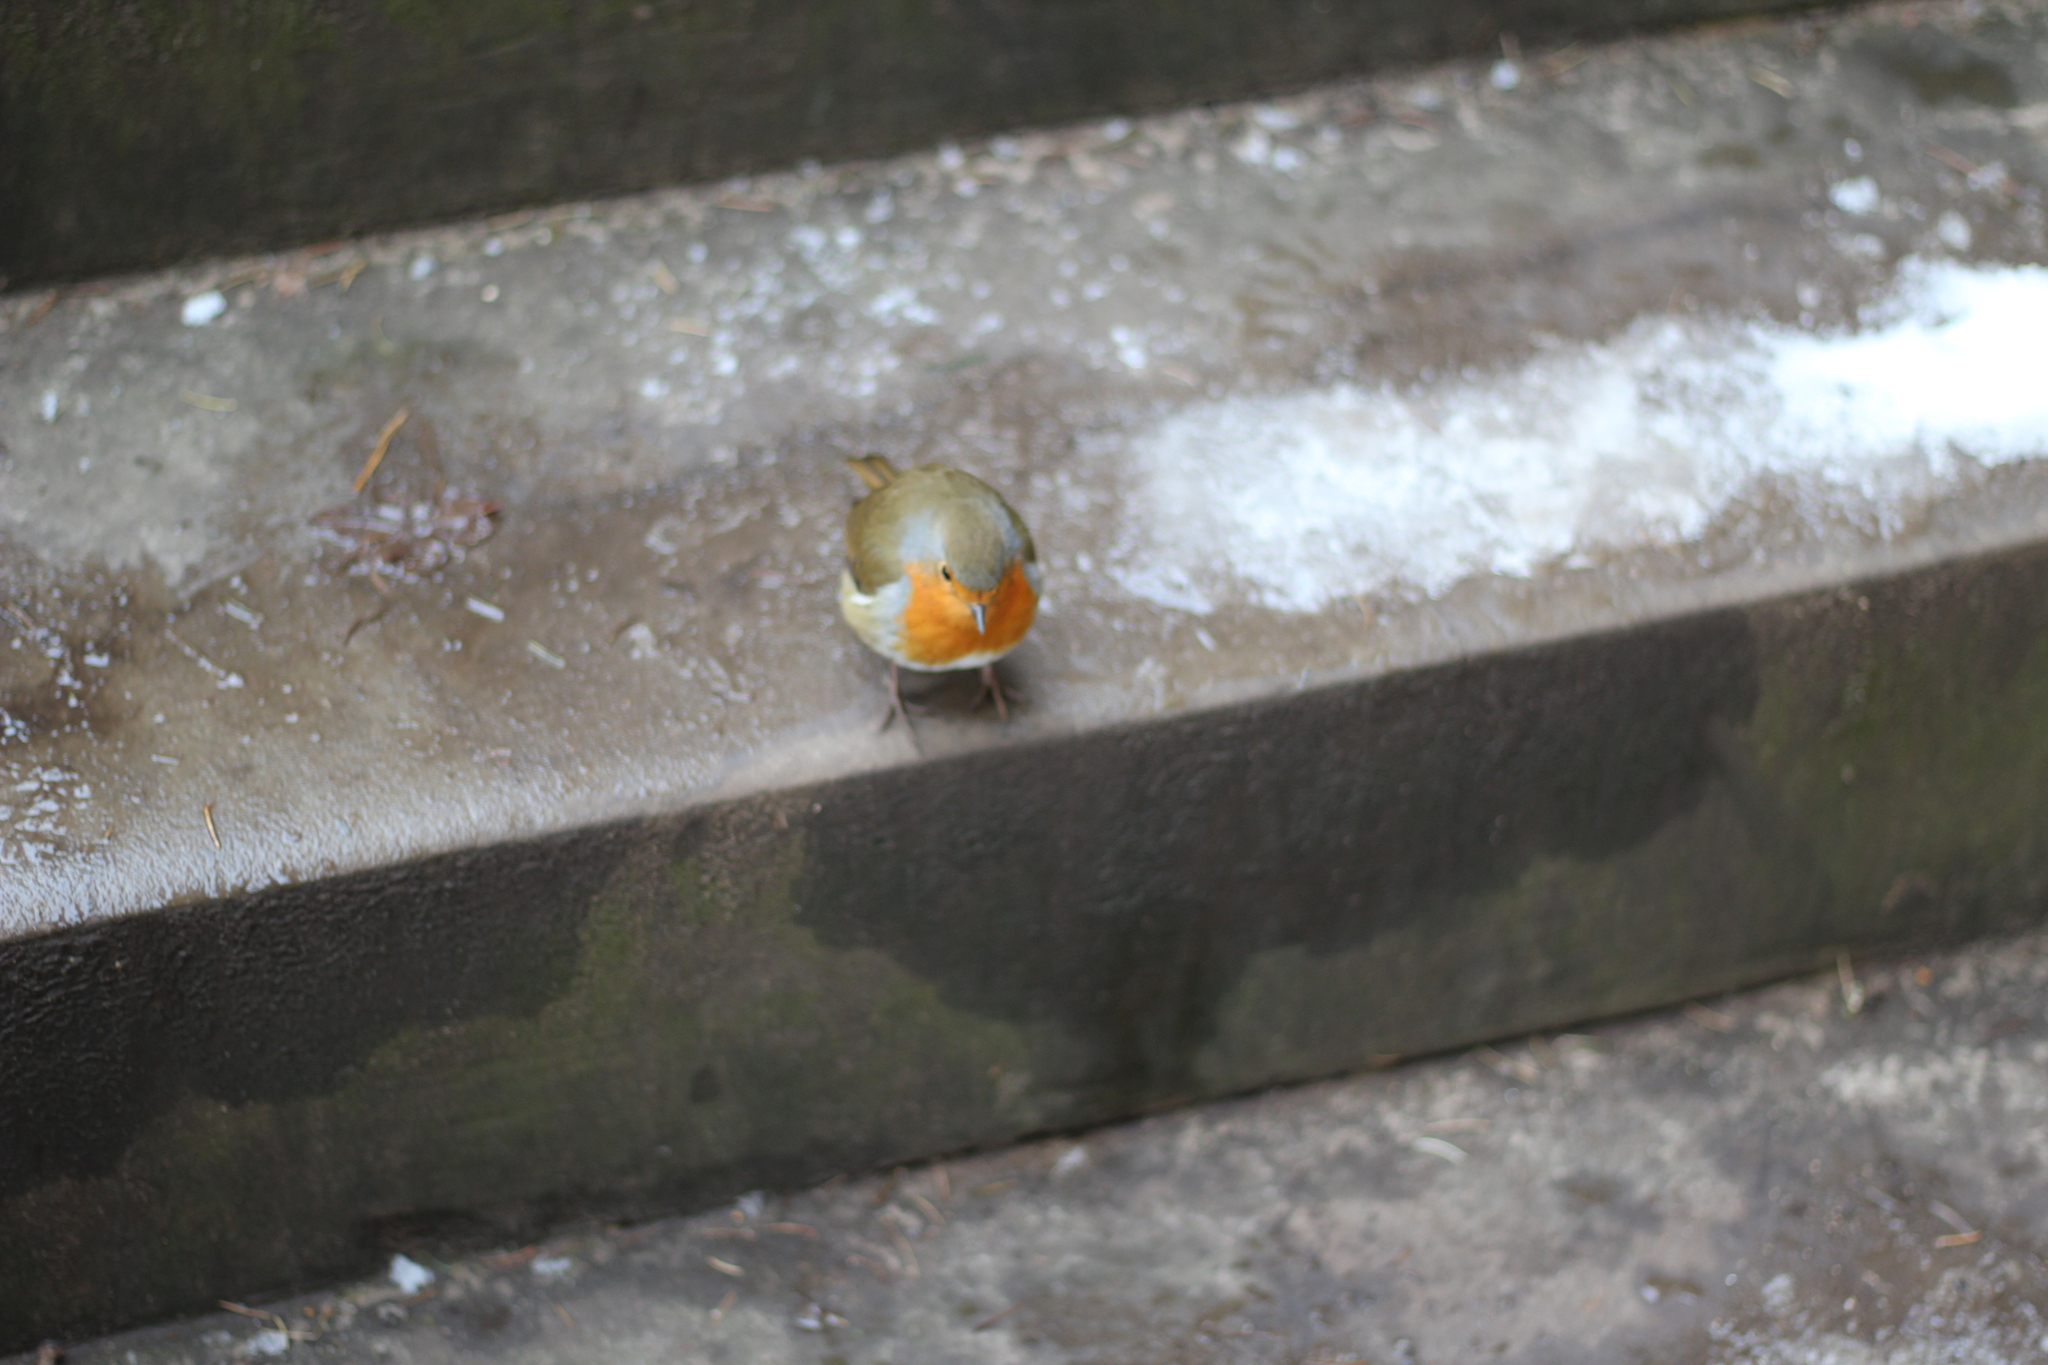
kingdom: Animalia
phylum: Chordata
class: Aves
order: Passeriformes
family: Muscicapidae
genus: Erithacus
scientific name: Erithacus rubecula
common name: European robin
